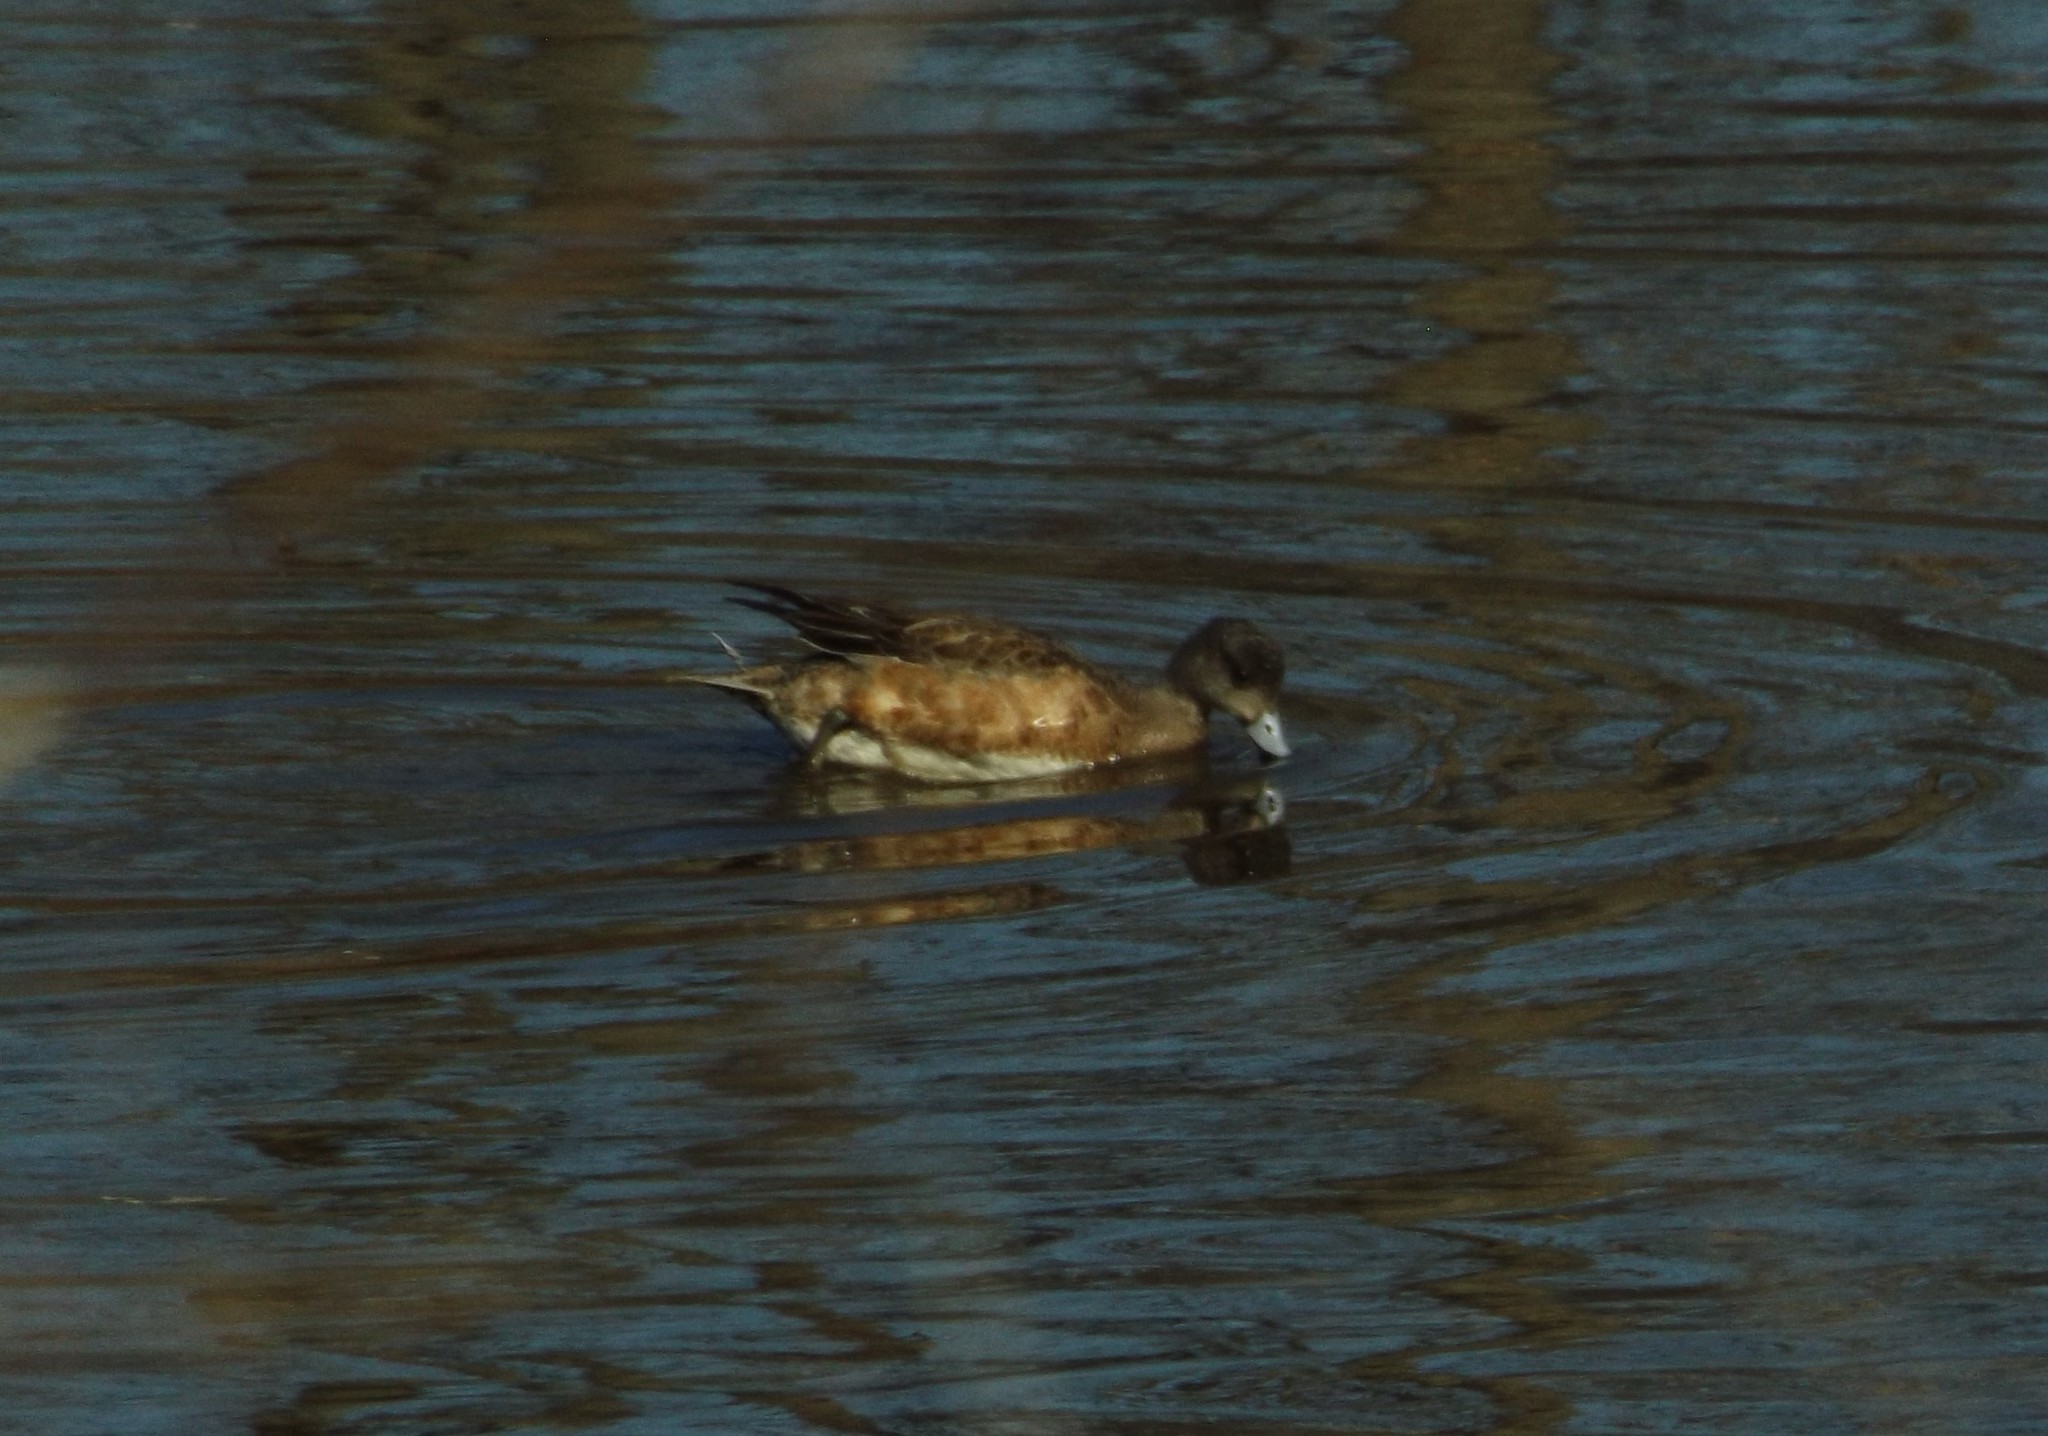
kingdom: Animalia
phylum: Chordata
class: Aves
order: Anseriformes
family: Anatidae
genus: Mareca
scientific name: Mareca americana
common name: American wigeon
